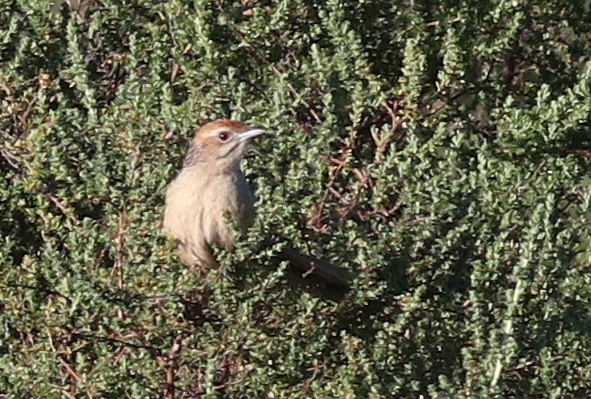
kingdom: Animalia
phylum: Chordata
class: Aves
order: Passeriformes
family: Macrosphenidae
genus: Sphenoeacus
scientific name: Sphenoeacus afer
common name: Cape grassbird
